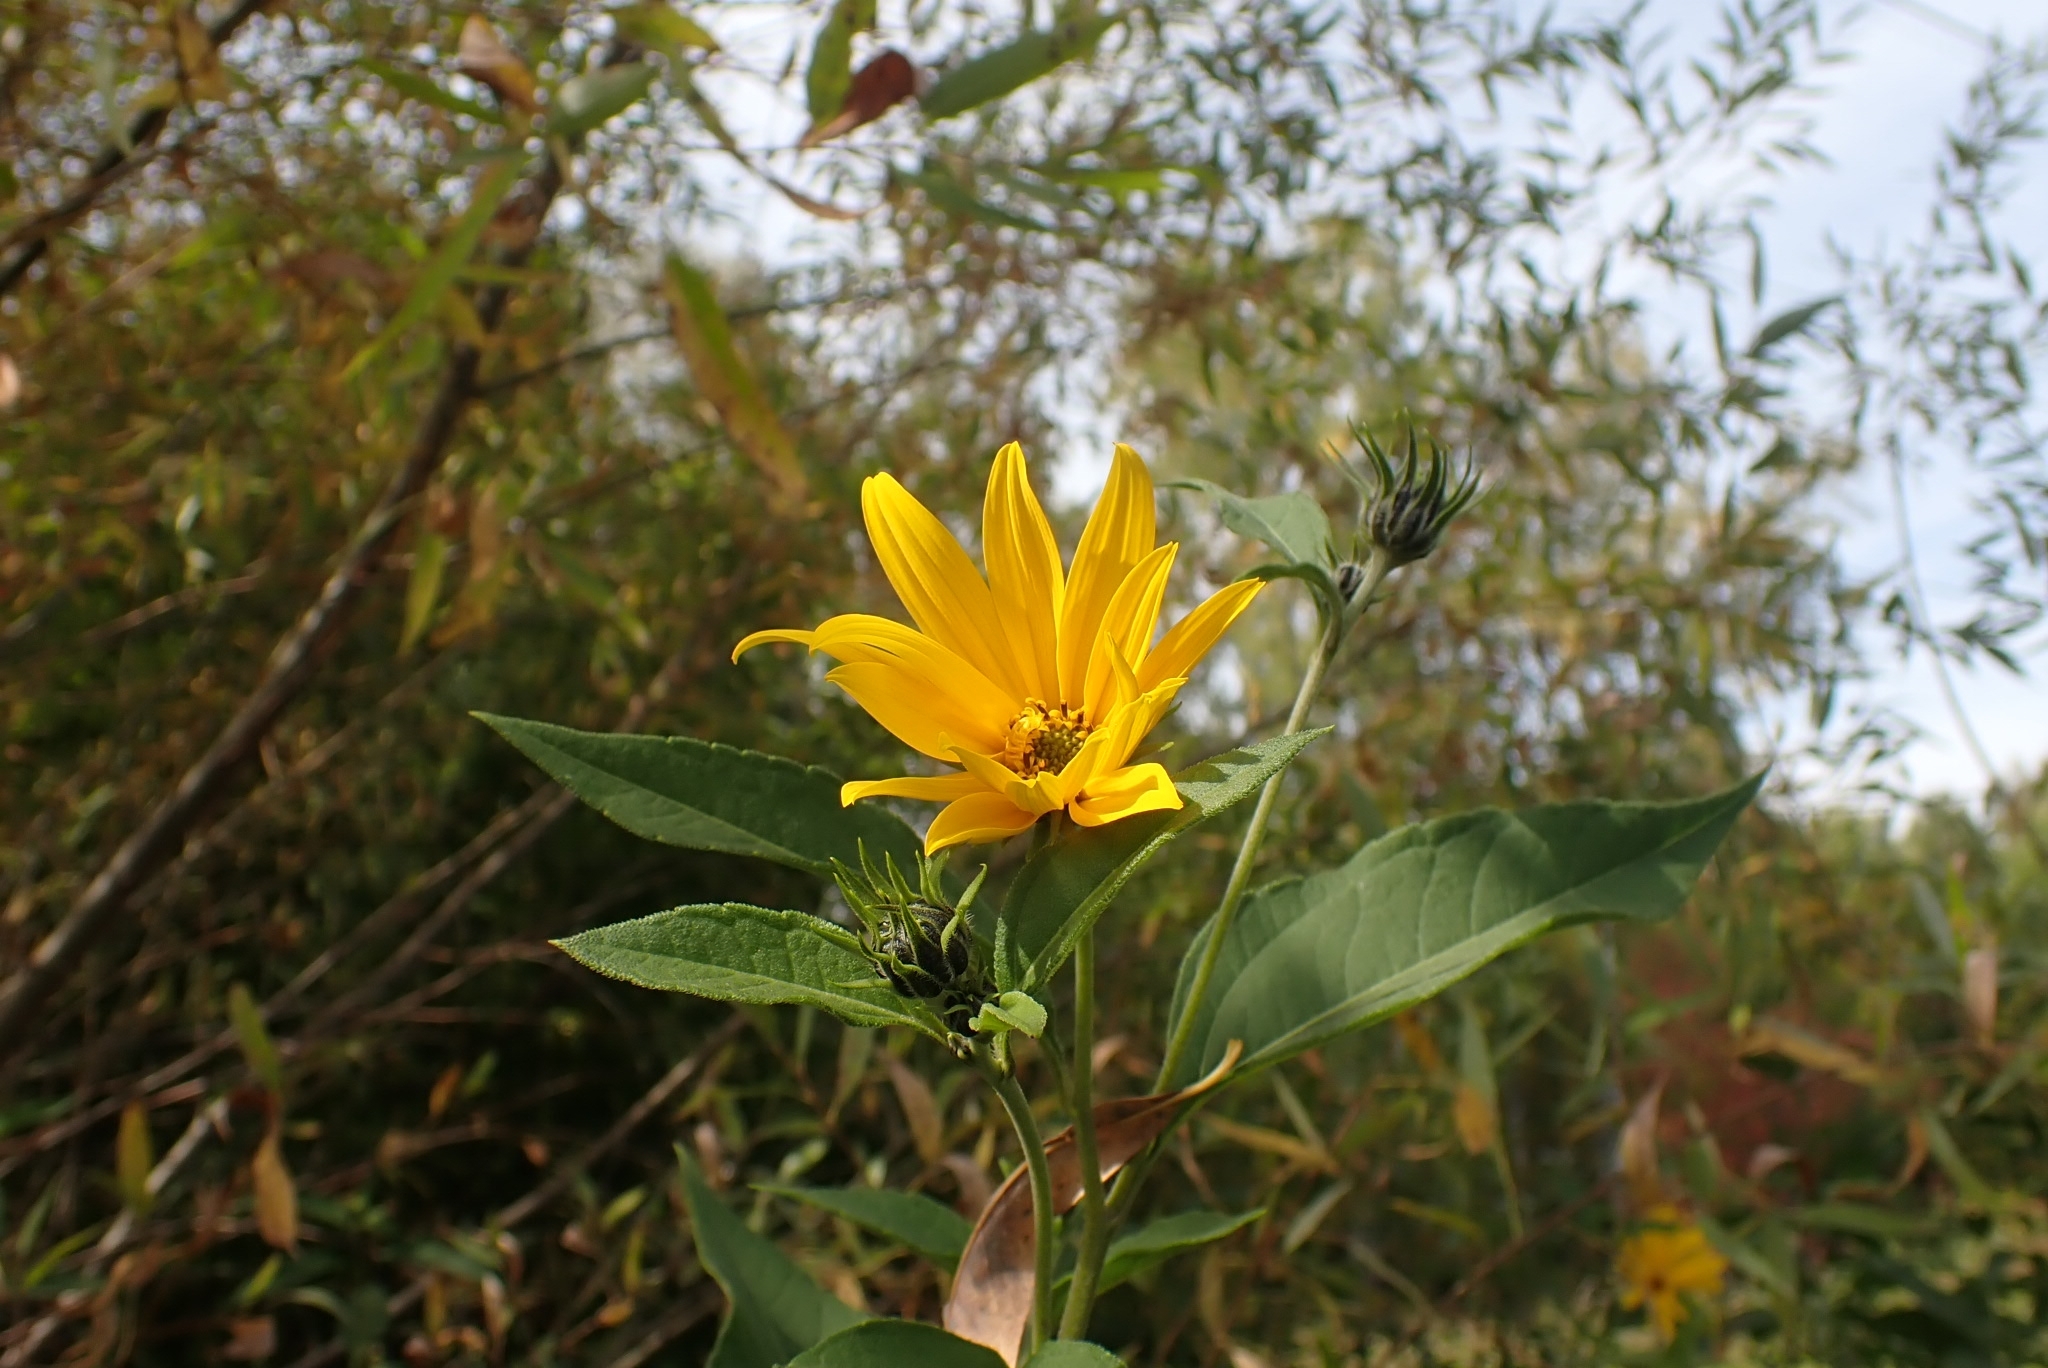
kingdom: Plantae
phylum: Tracheophyta
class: Magnoliopsida
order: Asterales
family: Asteraceae
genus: Helianthus
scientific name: Helianthus tuberosus
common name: Jerusalem artichoke
